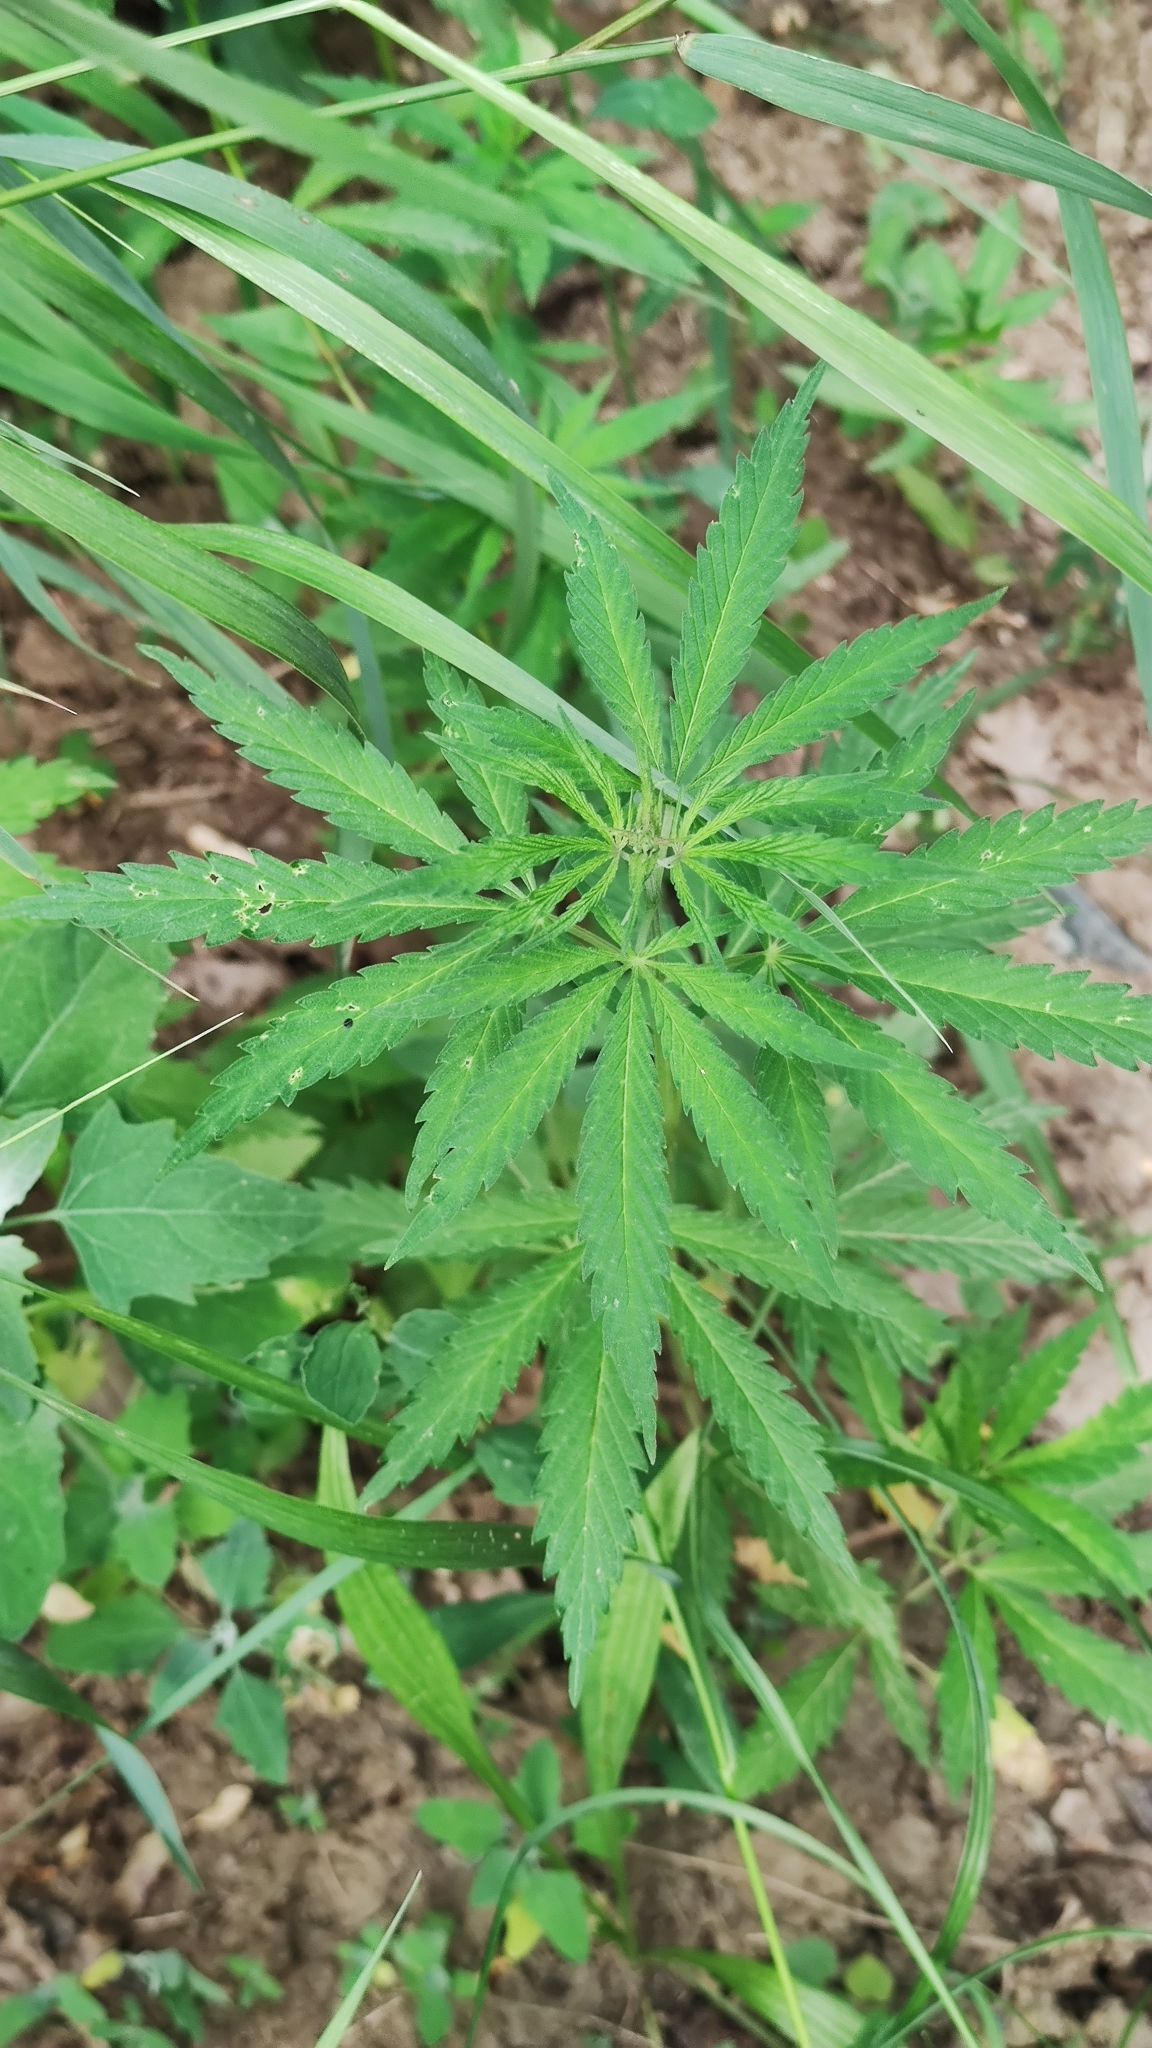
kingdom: Plantae
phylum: Tracheophyta
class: Magnoliopsida
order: Rosales
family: Cannabaceae
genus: Cannabis
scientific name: Cannabis sativa
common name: Hemp
